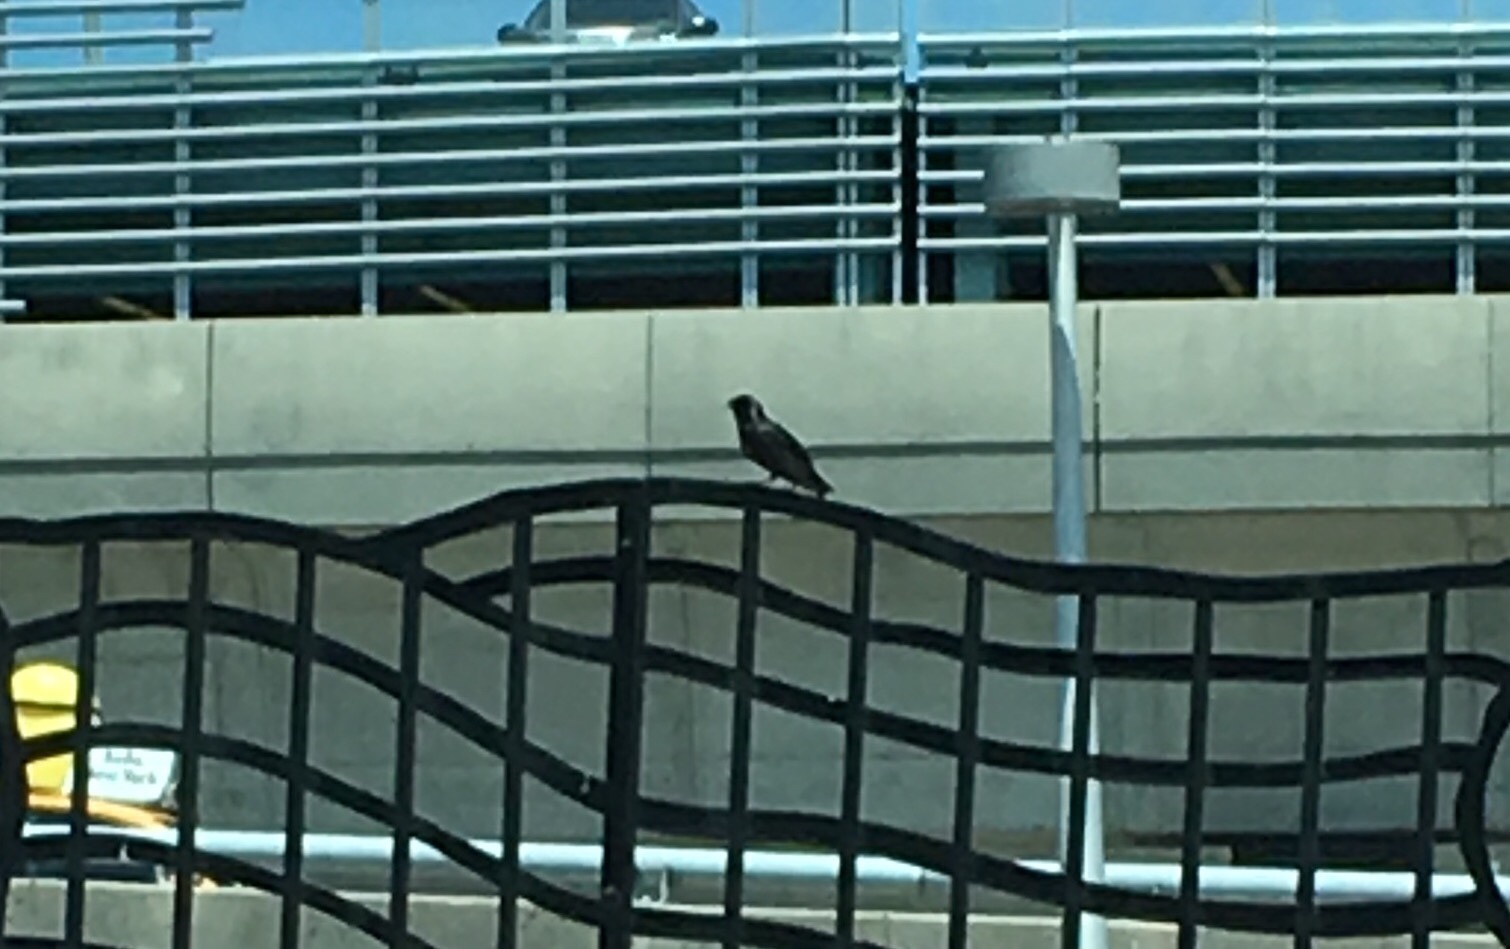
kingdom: Animalia
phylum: Chordata
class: Aves
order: Passeriformes
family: Sturnidae
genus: Sturnus
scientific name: Sturnus vulgaris
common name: Common starling
